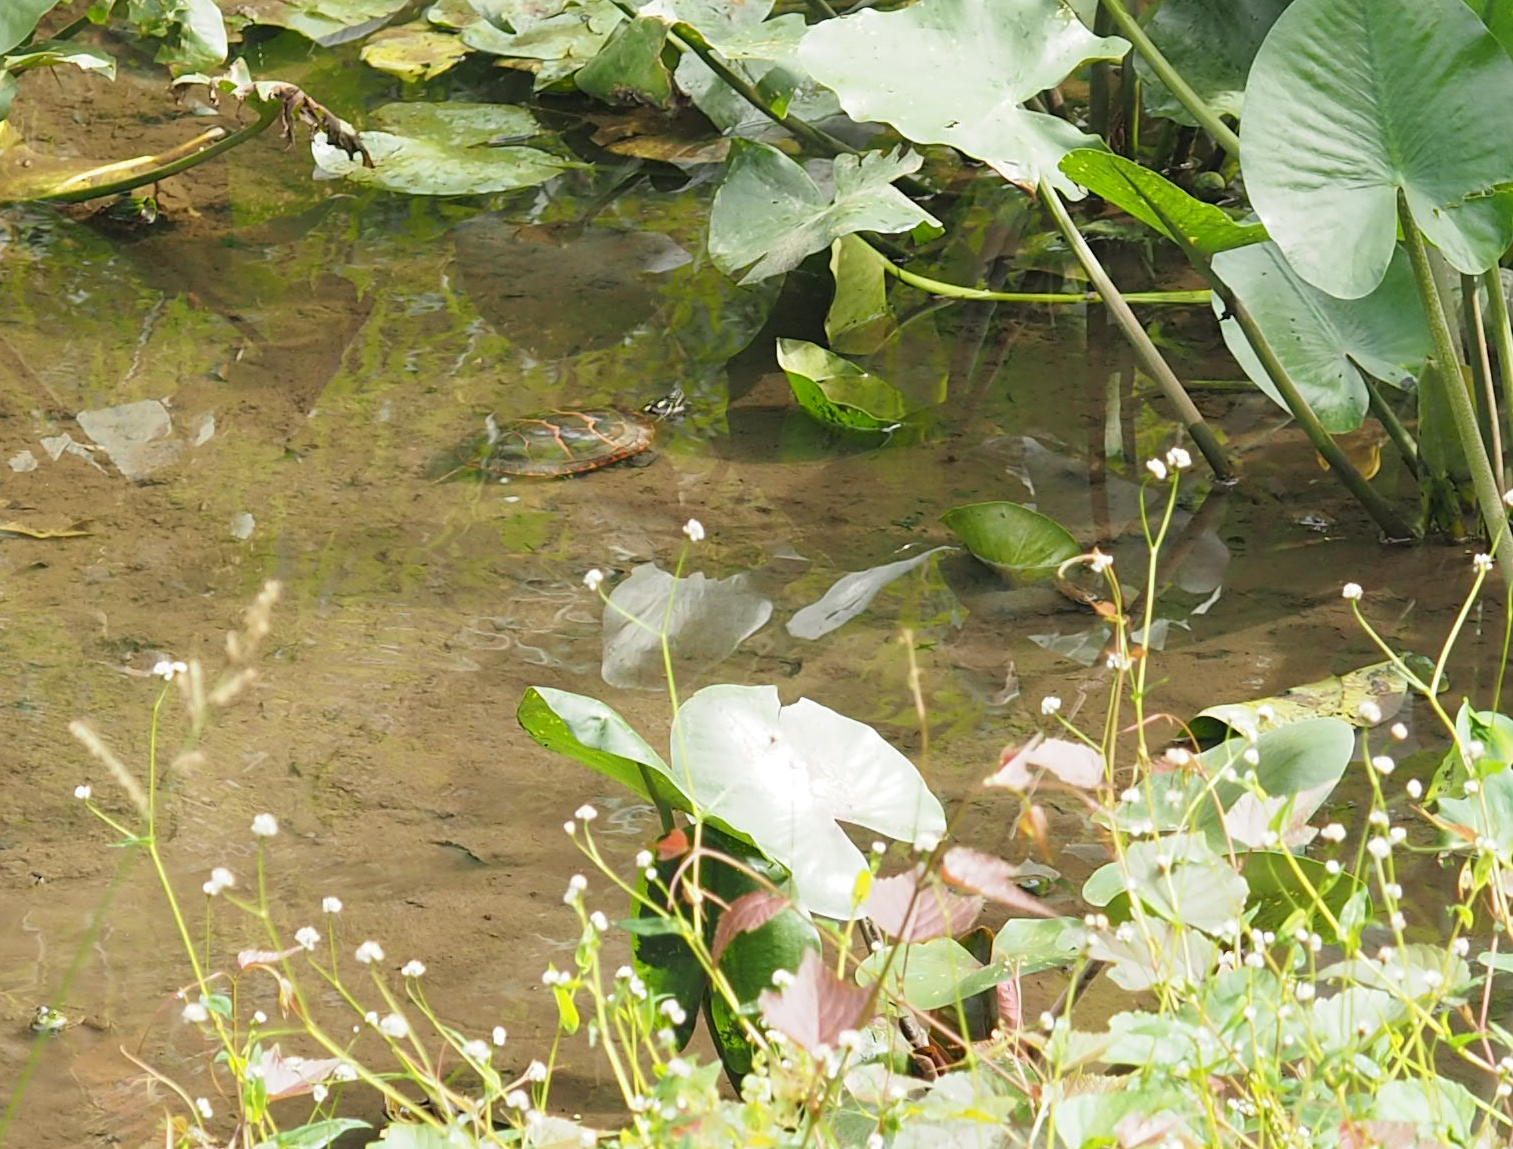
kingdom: Animalia
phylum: Chordata
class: Testudines
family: Emydidae
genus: Chrysemys
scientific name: Chrysemys picta
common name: Painted turtle
